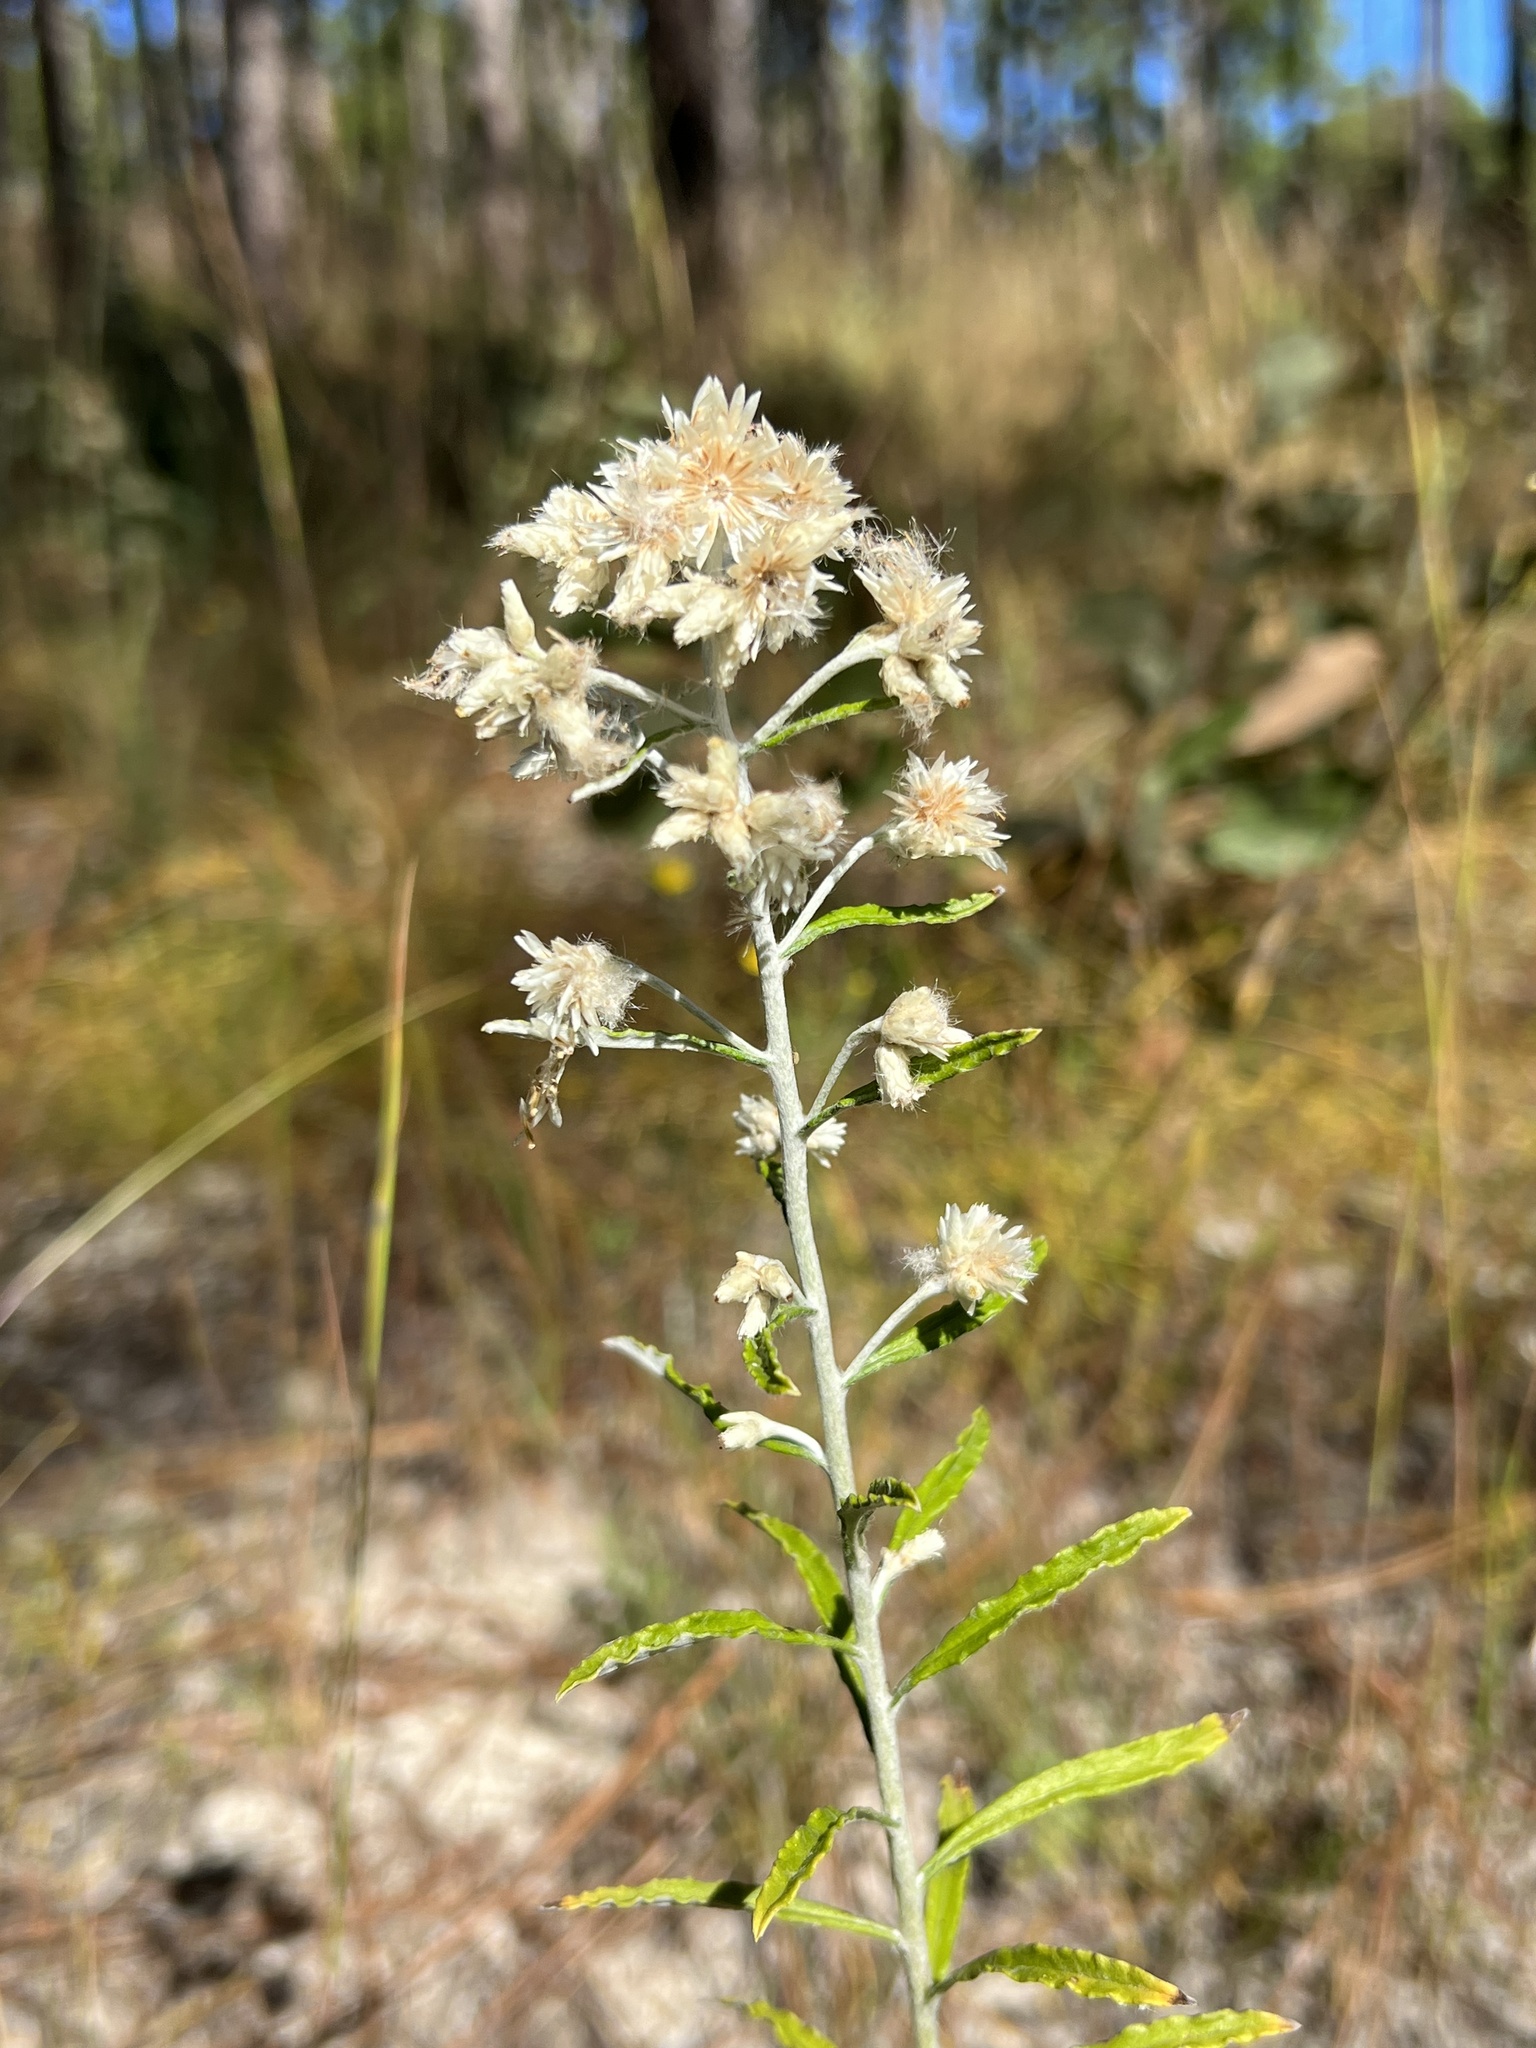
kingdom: Plantae
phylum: Tracheophyta
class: Magnoliopsida
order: Asterales
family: Asteraceae
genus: Pseudognaphalium
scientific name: Pseudognaphalium obtusifolium
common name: Eastern rabbit-tobacco
